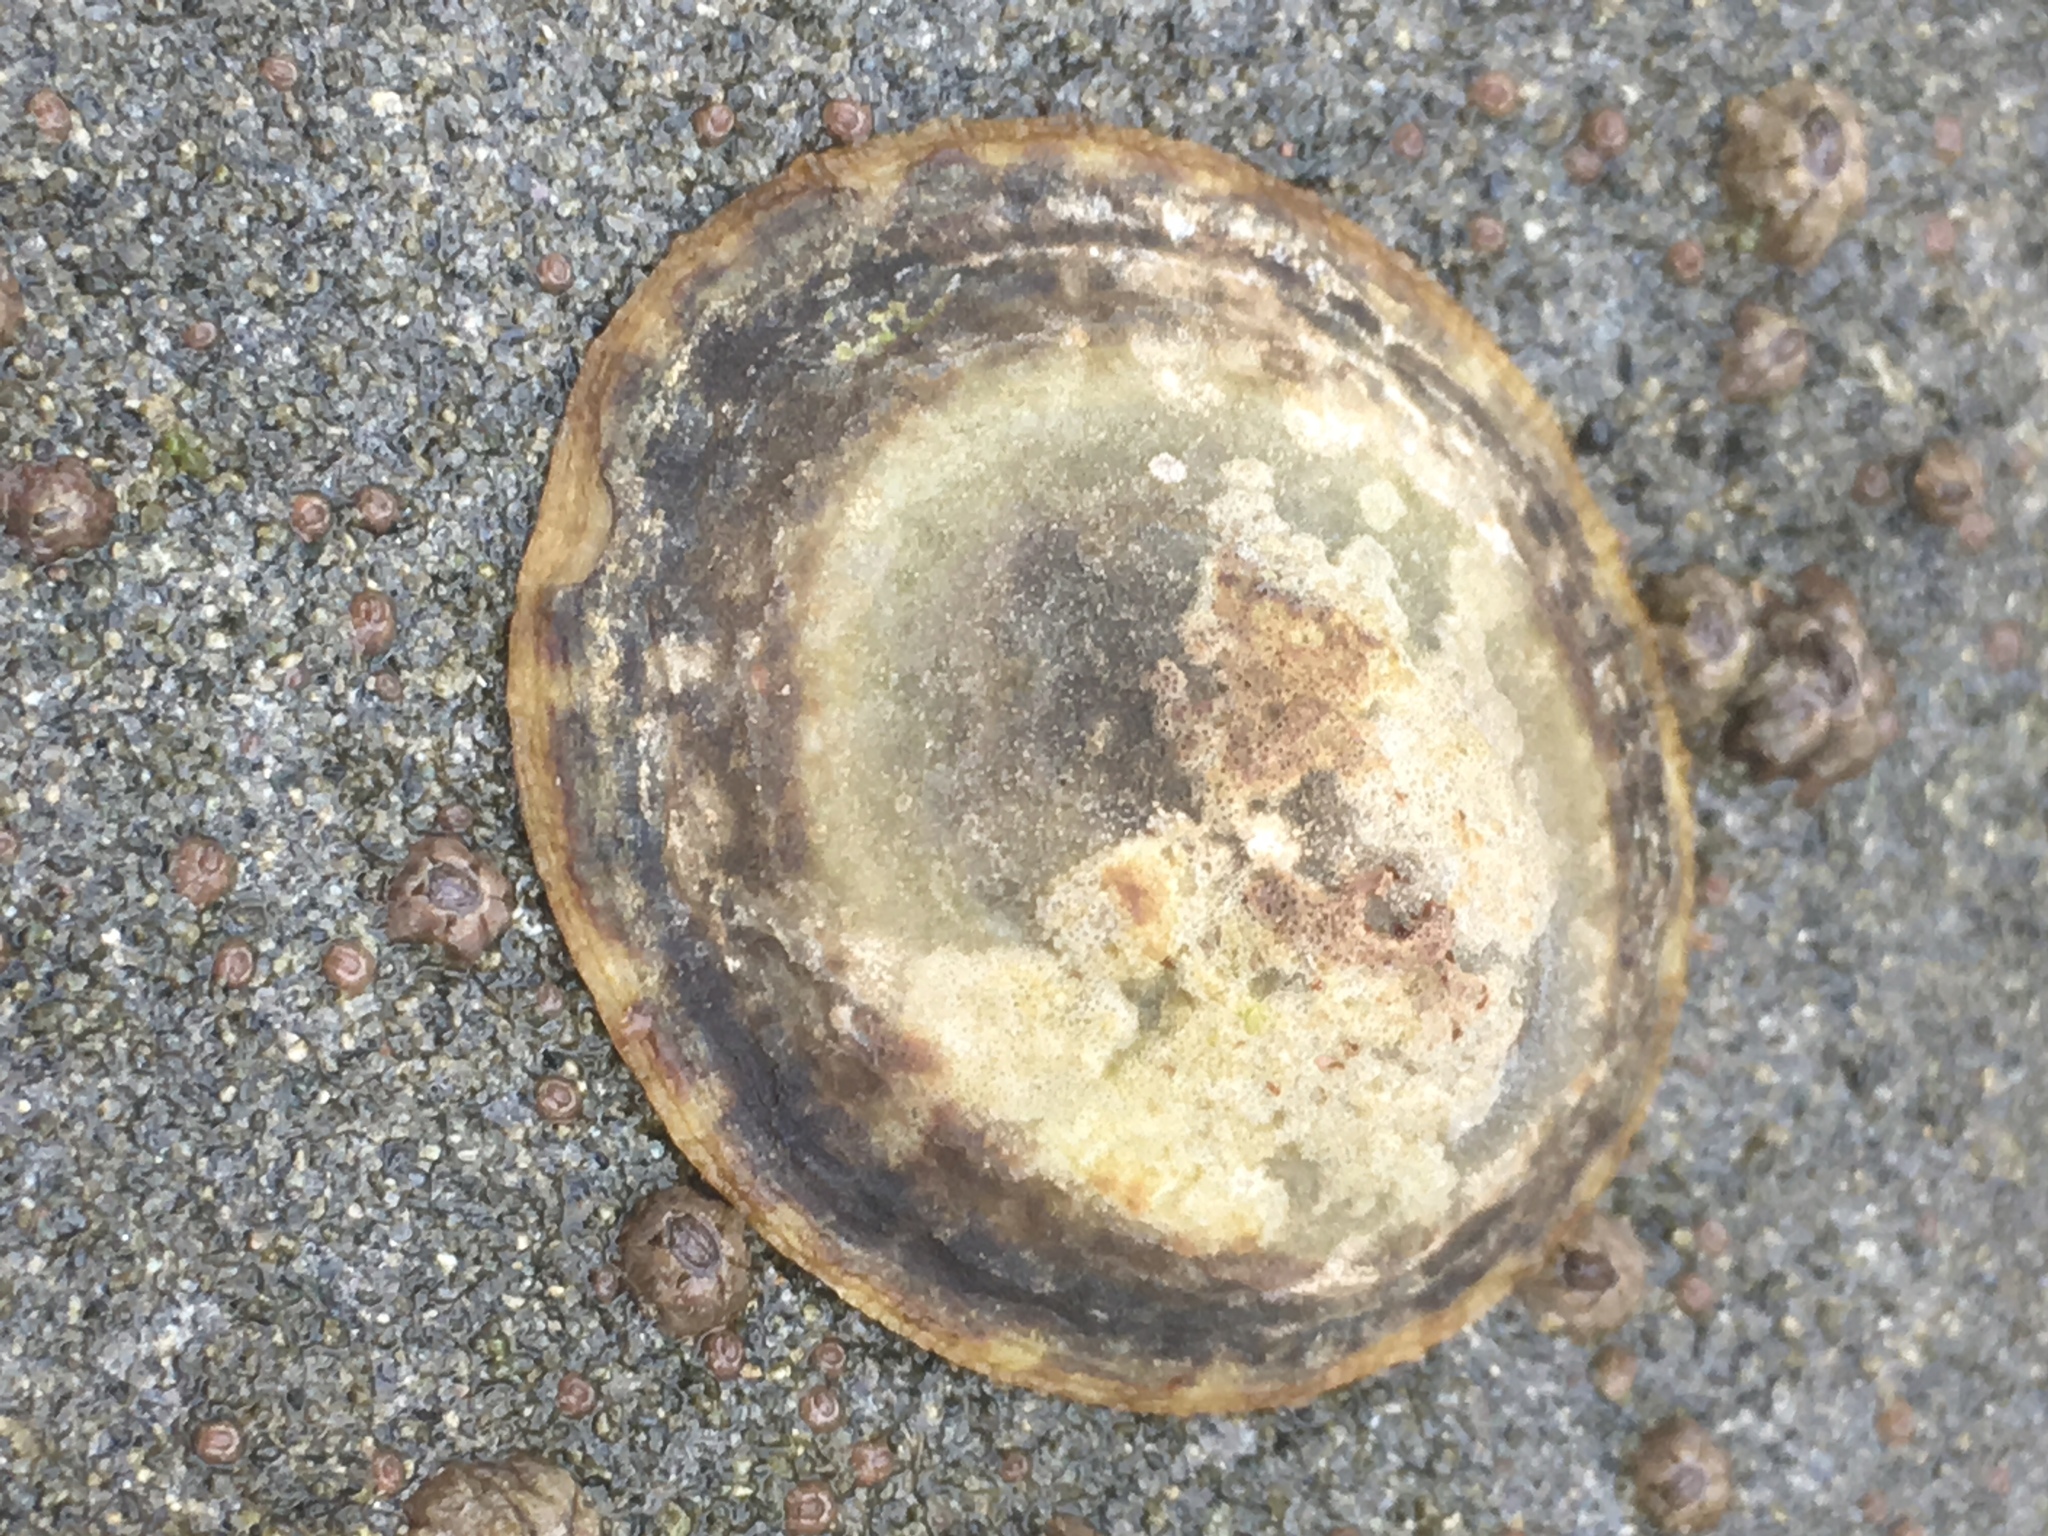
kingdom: Animalia
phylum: Mollusca
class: Gastropoda
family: Lottiidae
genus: Lottia
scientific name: Lottia gigantea
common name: Owl limpet
